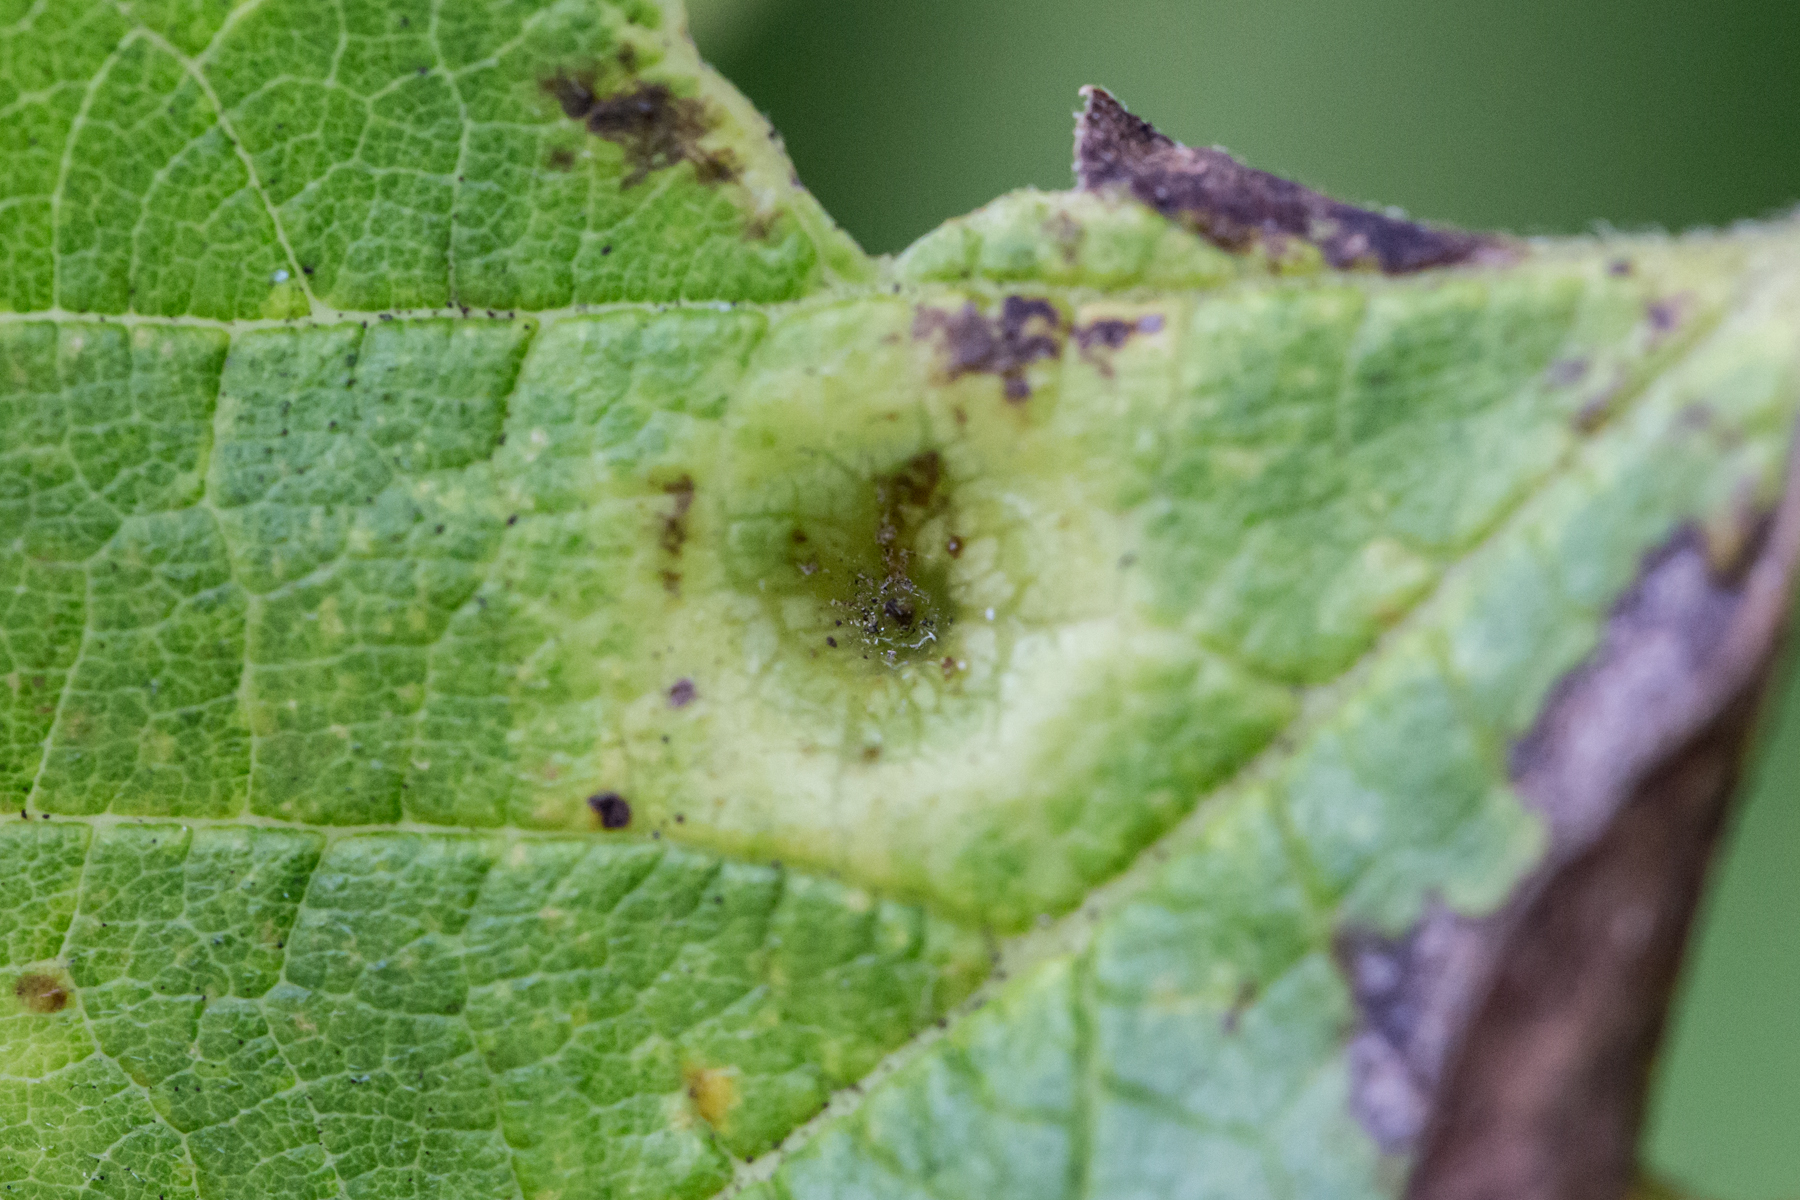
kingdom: Animalia
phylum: Arthropoda
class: Insecta
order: Hemiptera
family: Aphalaridae
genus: Pachypsylla
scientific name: Pachypsylla celtidismamma
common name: Hackberry nipplegall psyllid
